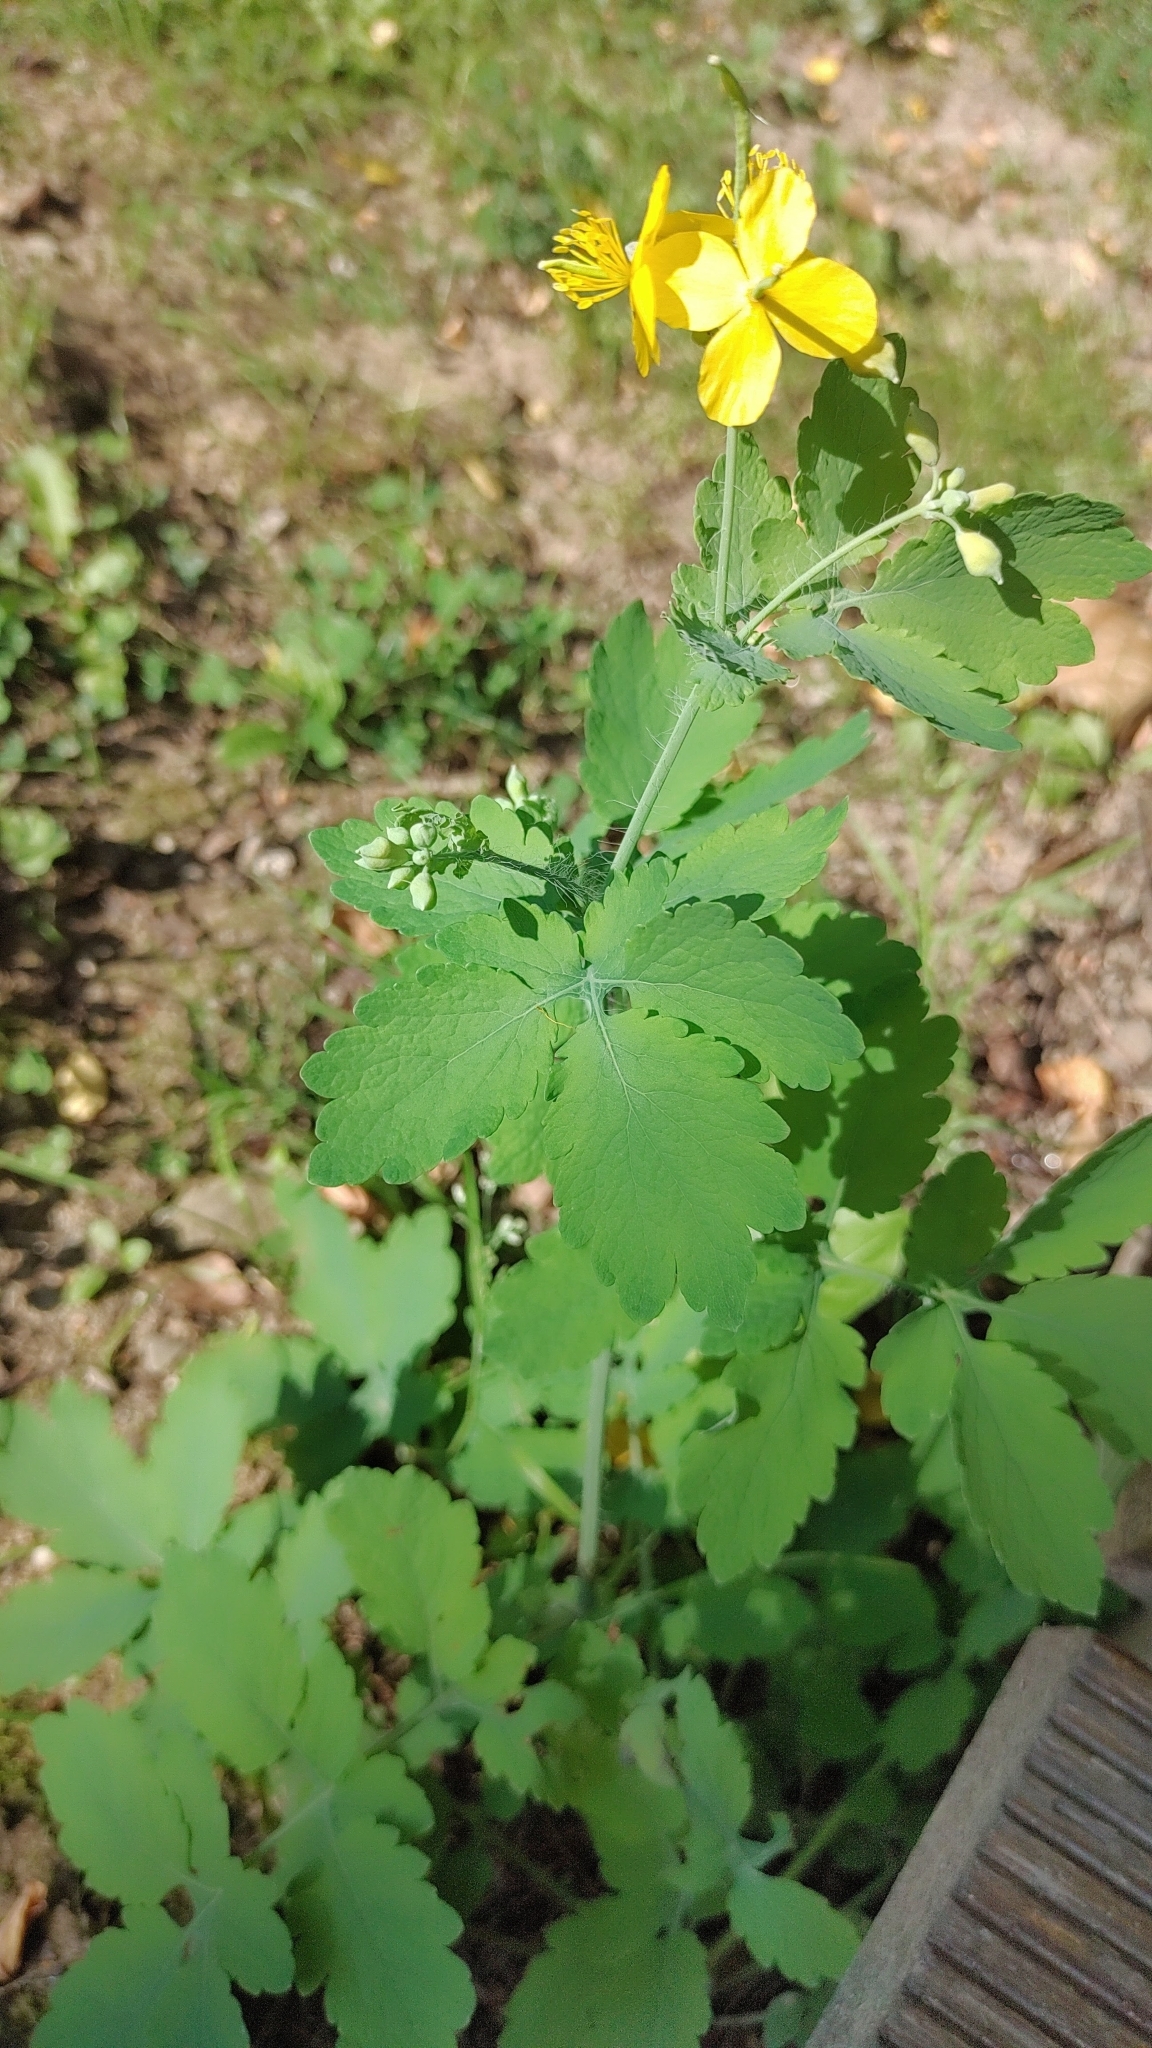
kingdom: Plantae
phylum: Tracheophyta
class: Magnoliopsida
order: Ranunculales
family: Papaveraceae
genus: Chelidonium
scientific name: Chelidonium majus
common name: Greater celandine
